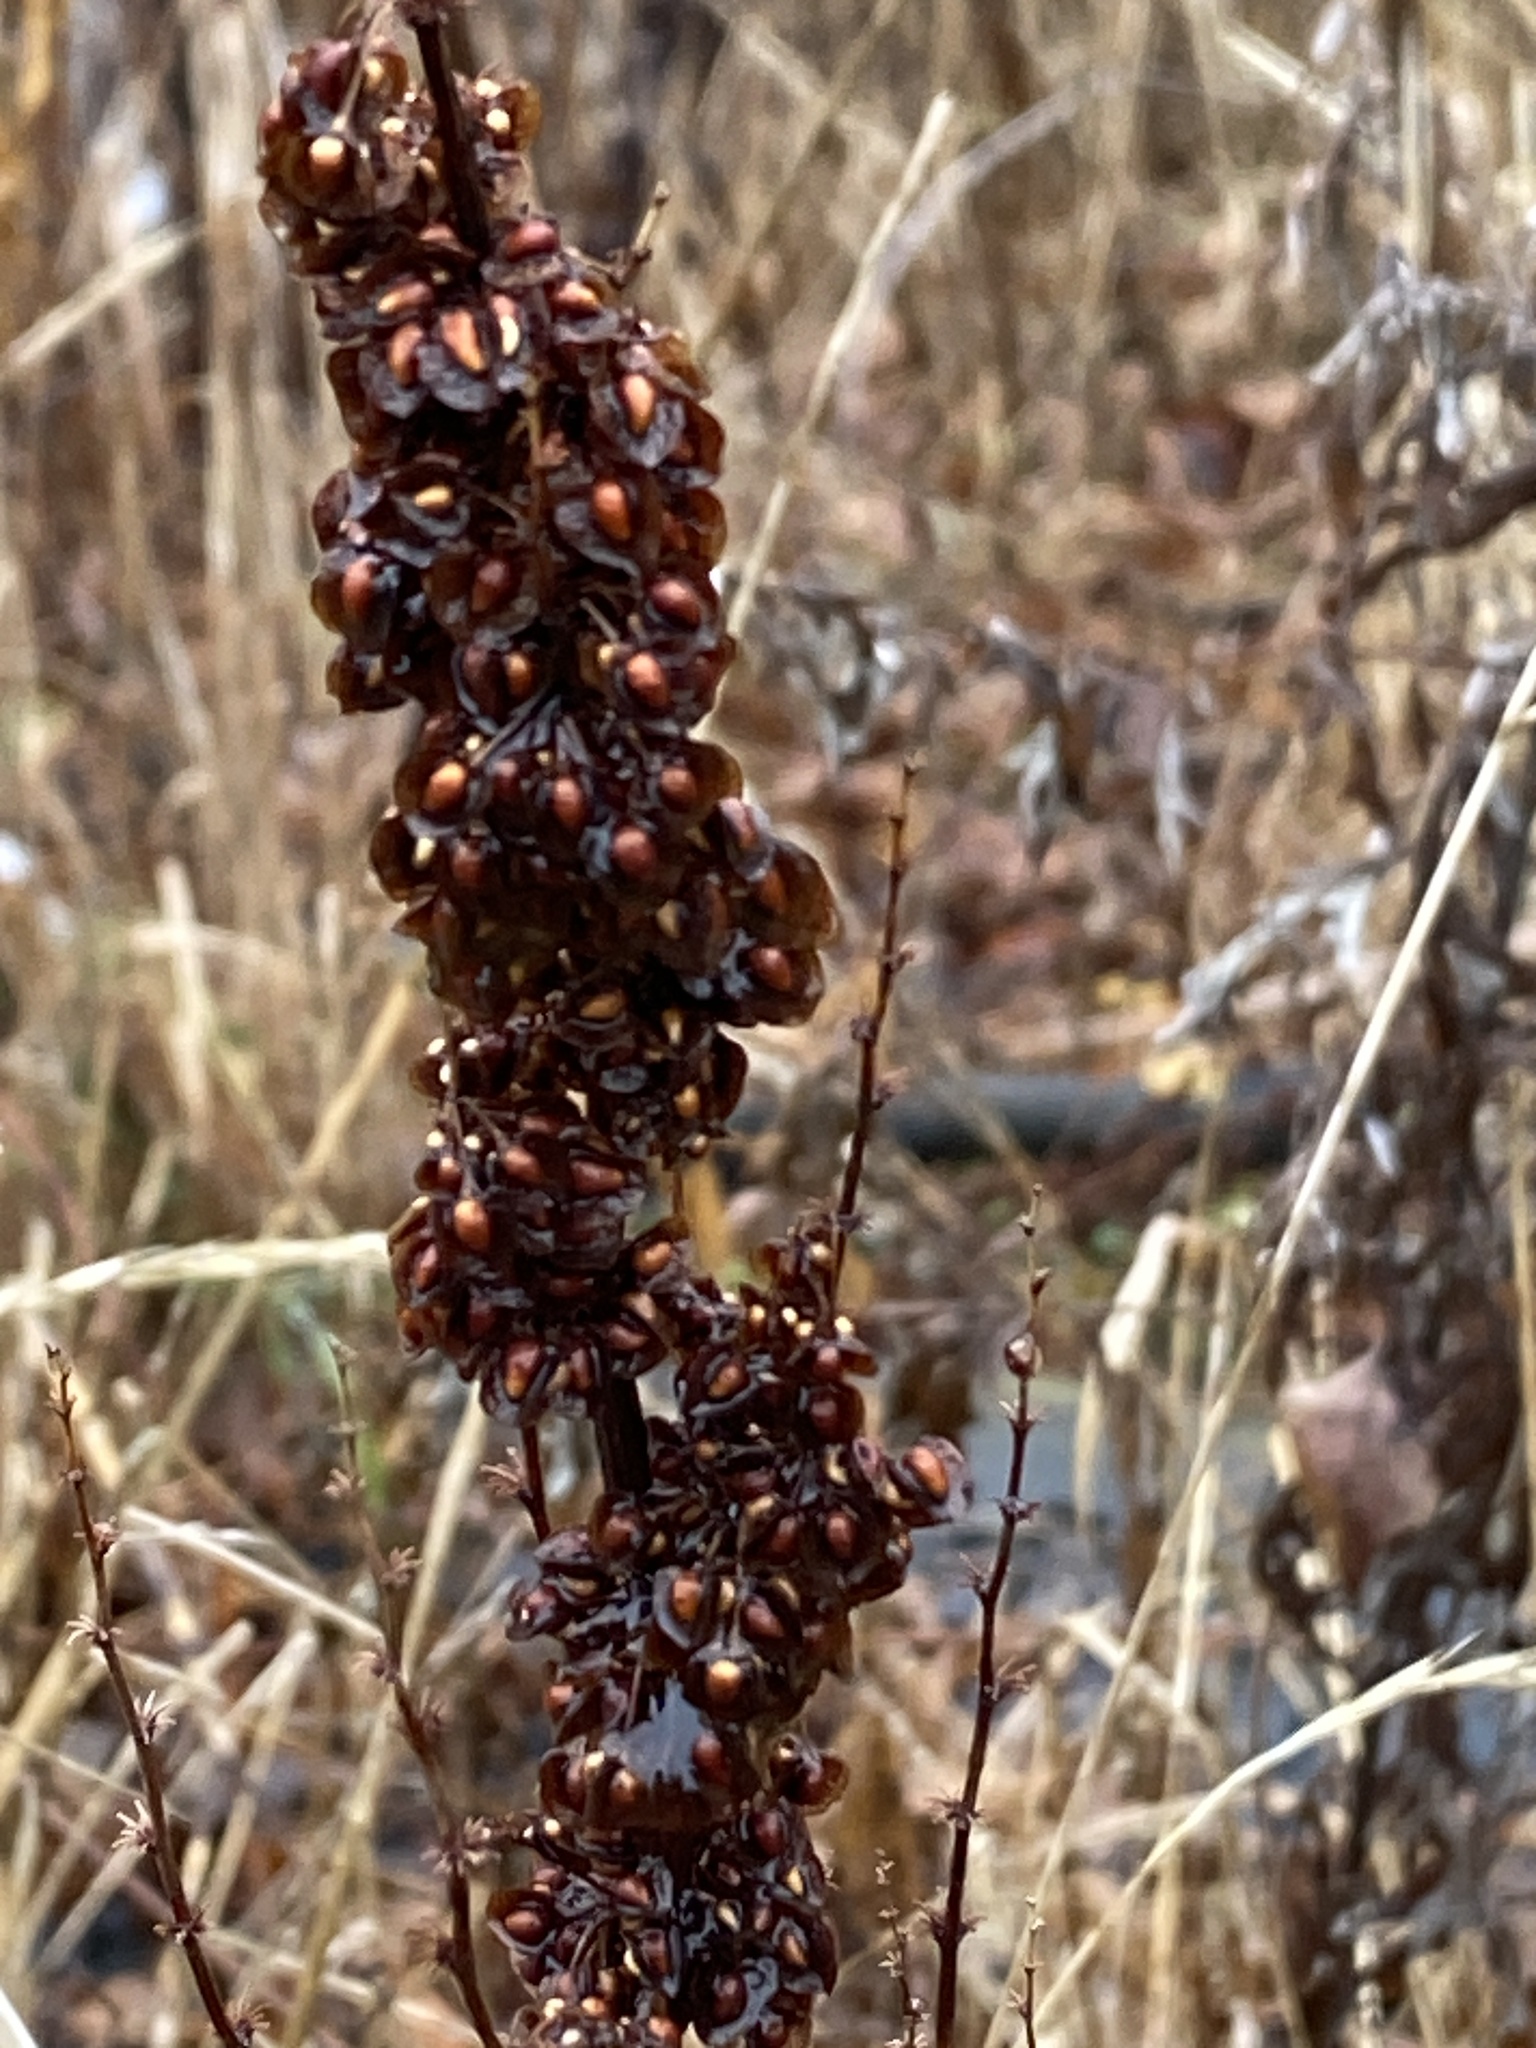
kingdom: Plantae
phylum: Tracheophyta
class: Magnoliopsida
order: Caryophyllales
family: Polygonaceae
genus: Rumex
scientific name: Rumex crispus
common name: Curled dock
